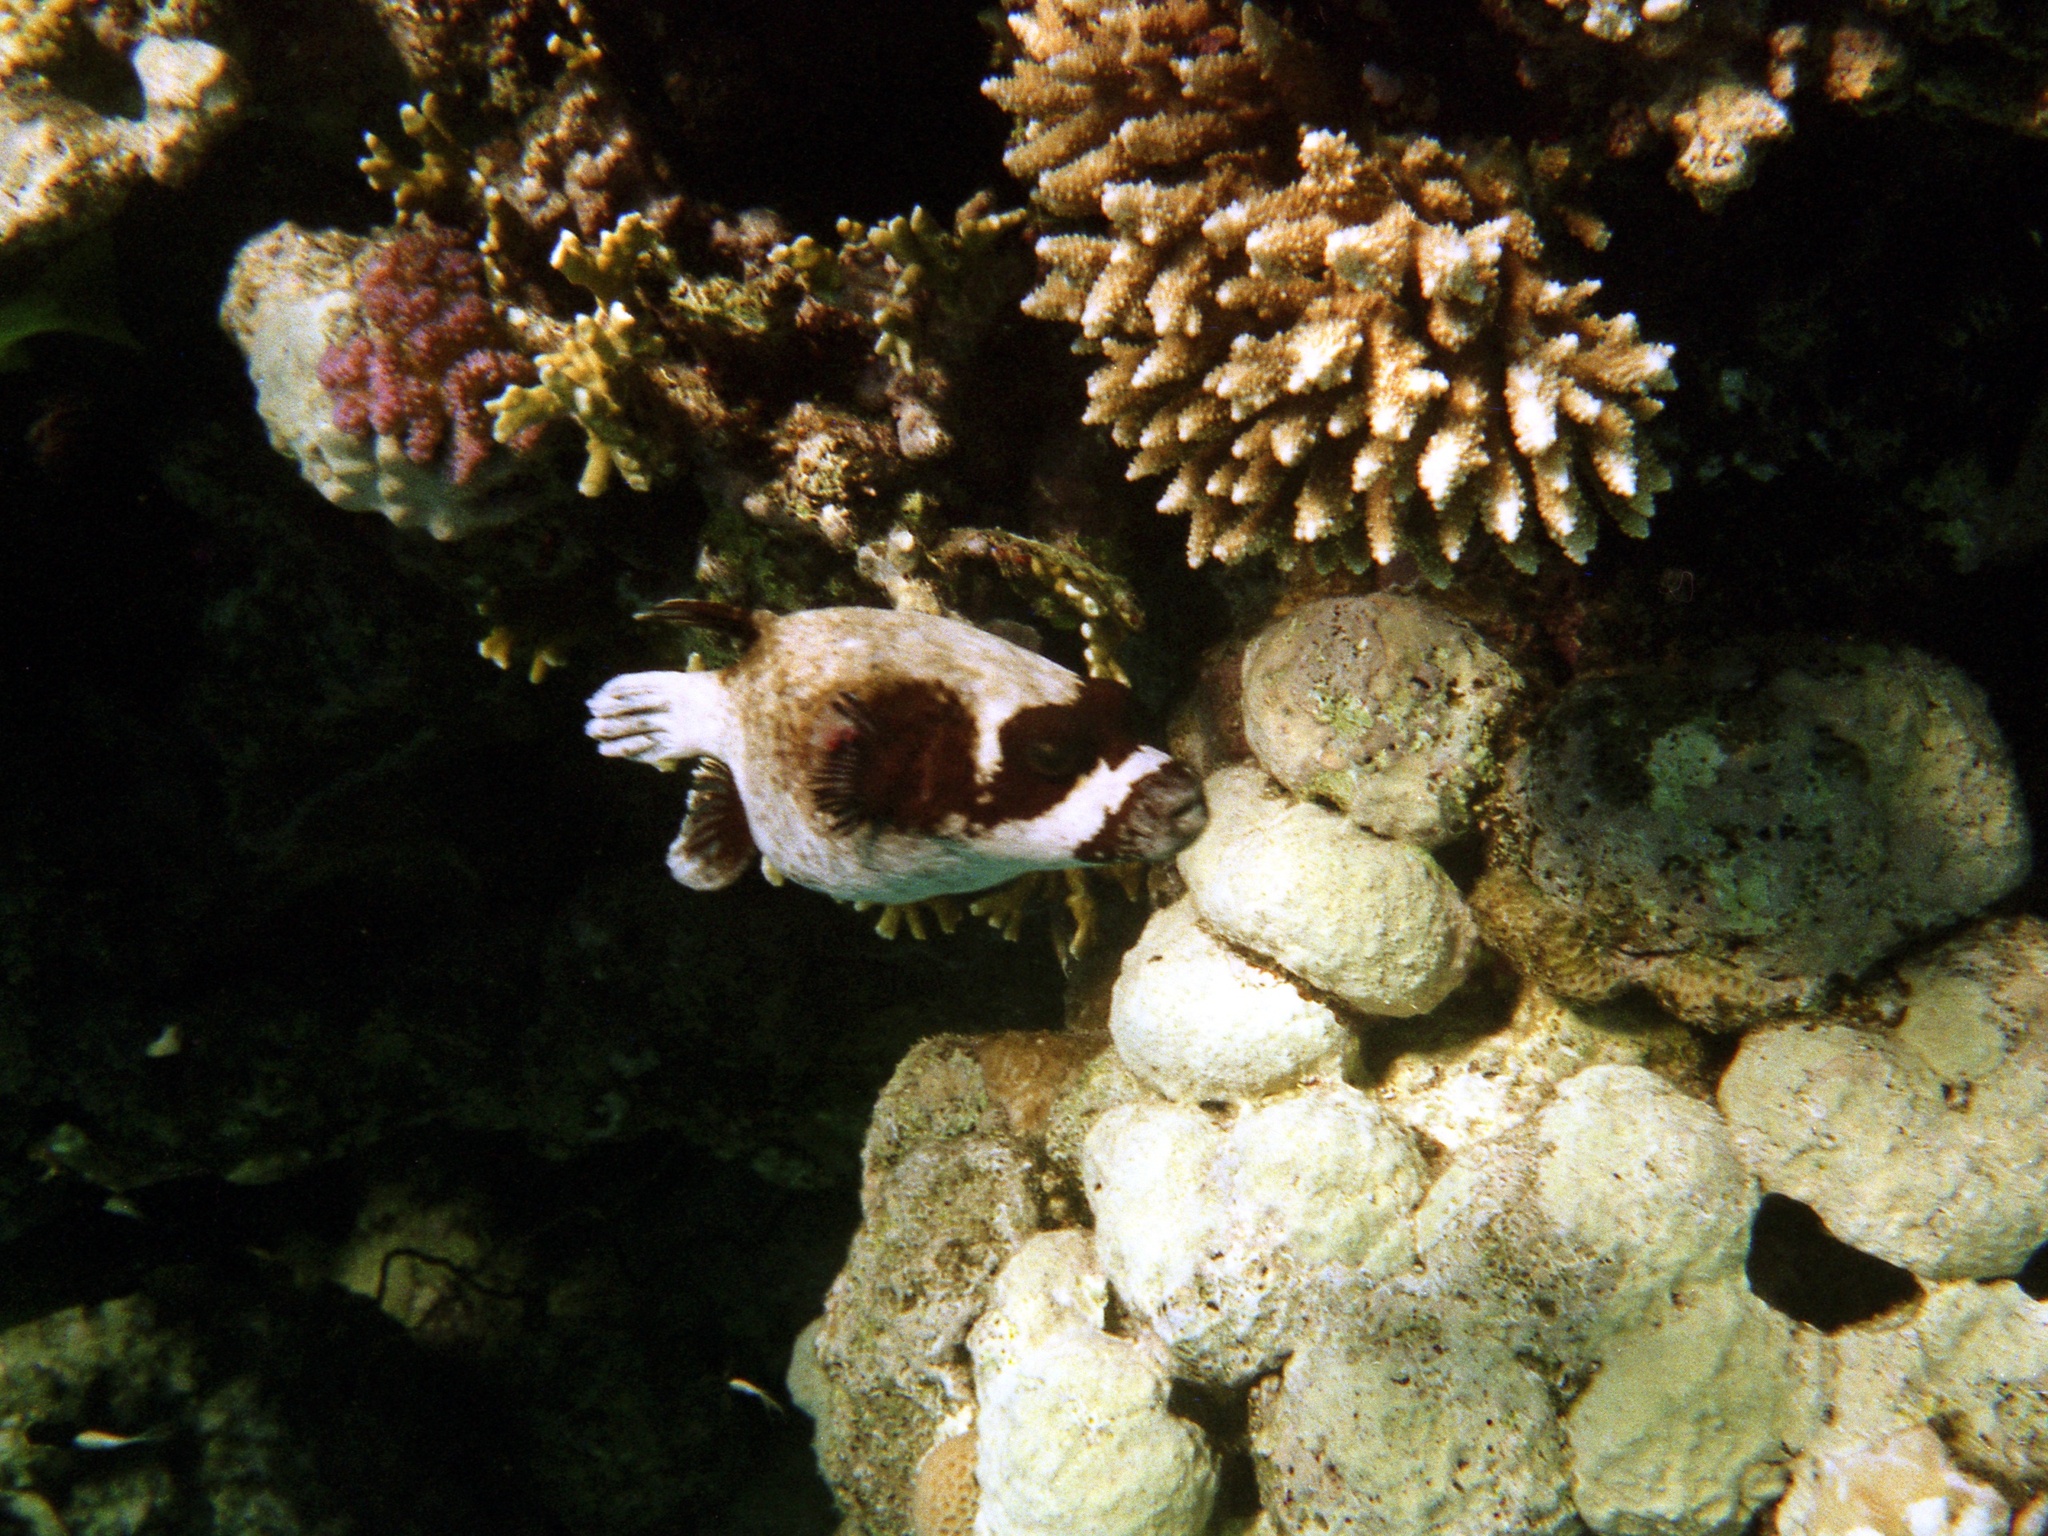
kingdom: Animalia
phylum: Chordata
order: Tetraodontiformes
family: Tetraodontidae
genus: Arothron
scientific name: Arothron diadematus
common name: Masked puffer
